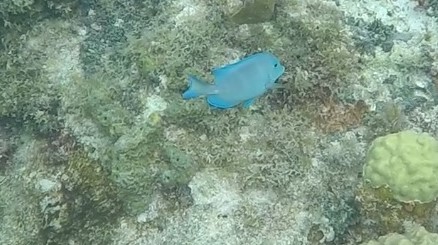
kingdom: Animalia
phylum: Chordata
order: Perciformes
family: Acanthuridae
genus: Acanthurus
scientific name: Acanthurus coeruleus
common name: Blue tang
